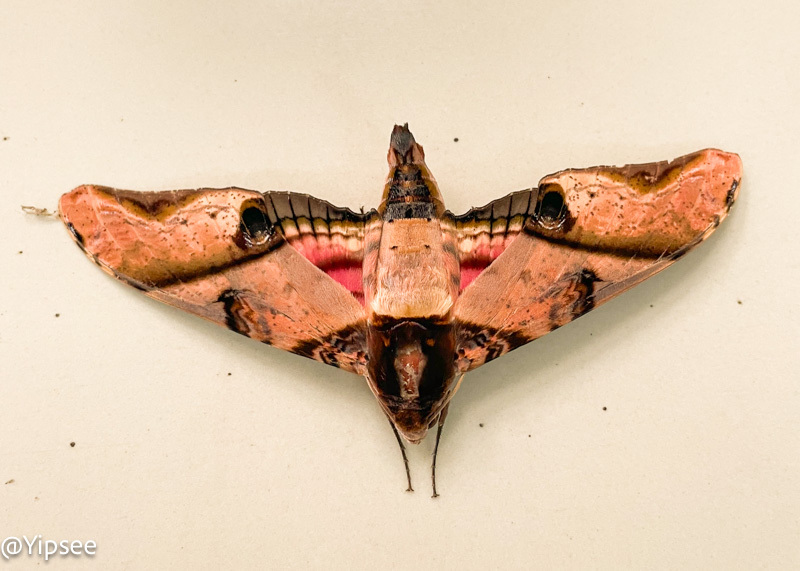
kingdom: Animalia
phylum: Arthropoda
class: Insecta
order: Lepidoptera
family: Sphingidae
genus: Amplypterus
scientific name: Amplypterus panopus
